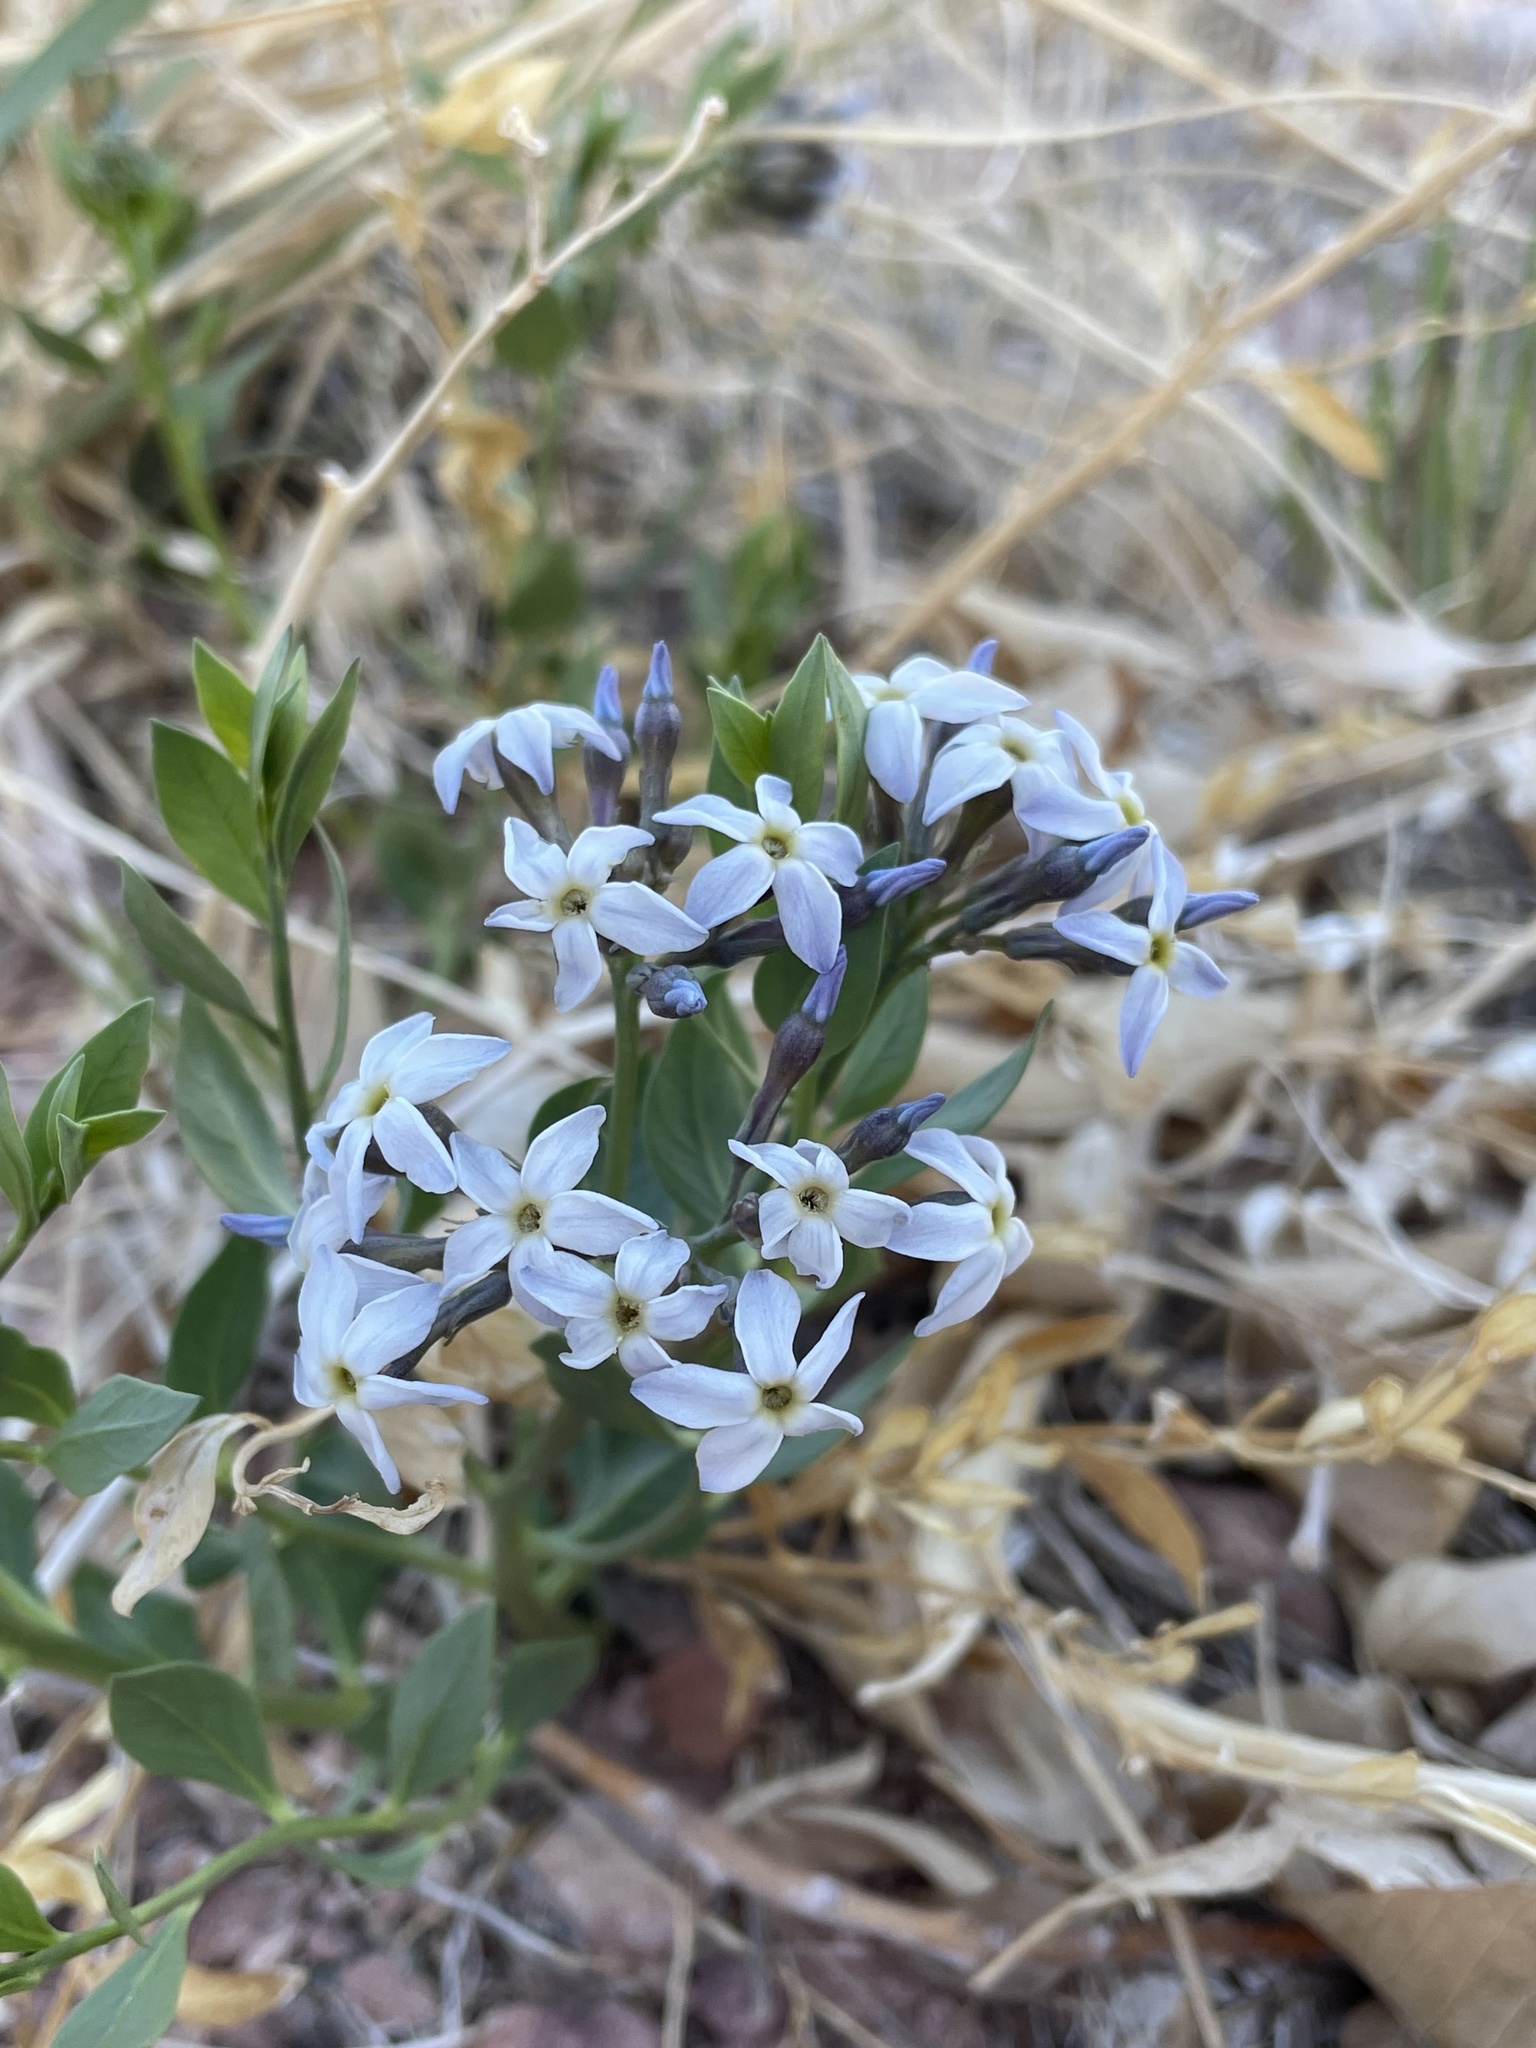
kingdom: Plantae
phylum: Tracheophyta
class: Magnoliopsida
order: Gentianales
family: Apocynaceae
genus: Amsonia
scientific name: Amsonia tomentosa
